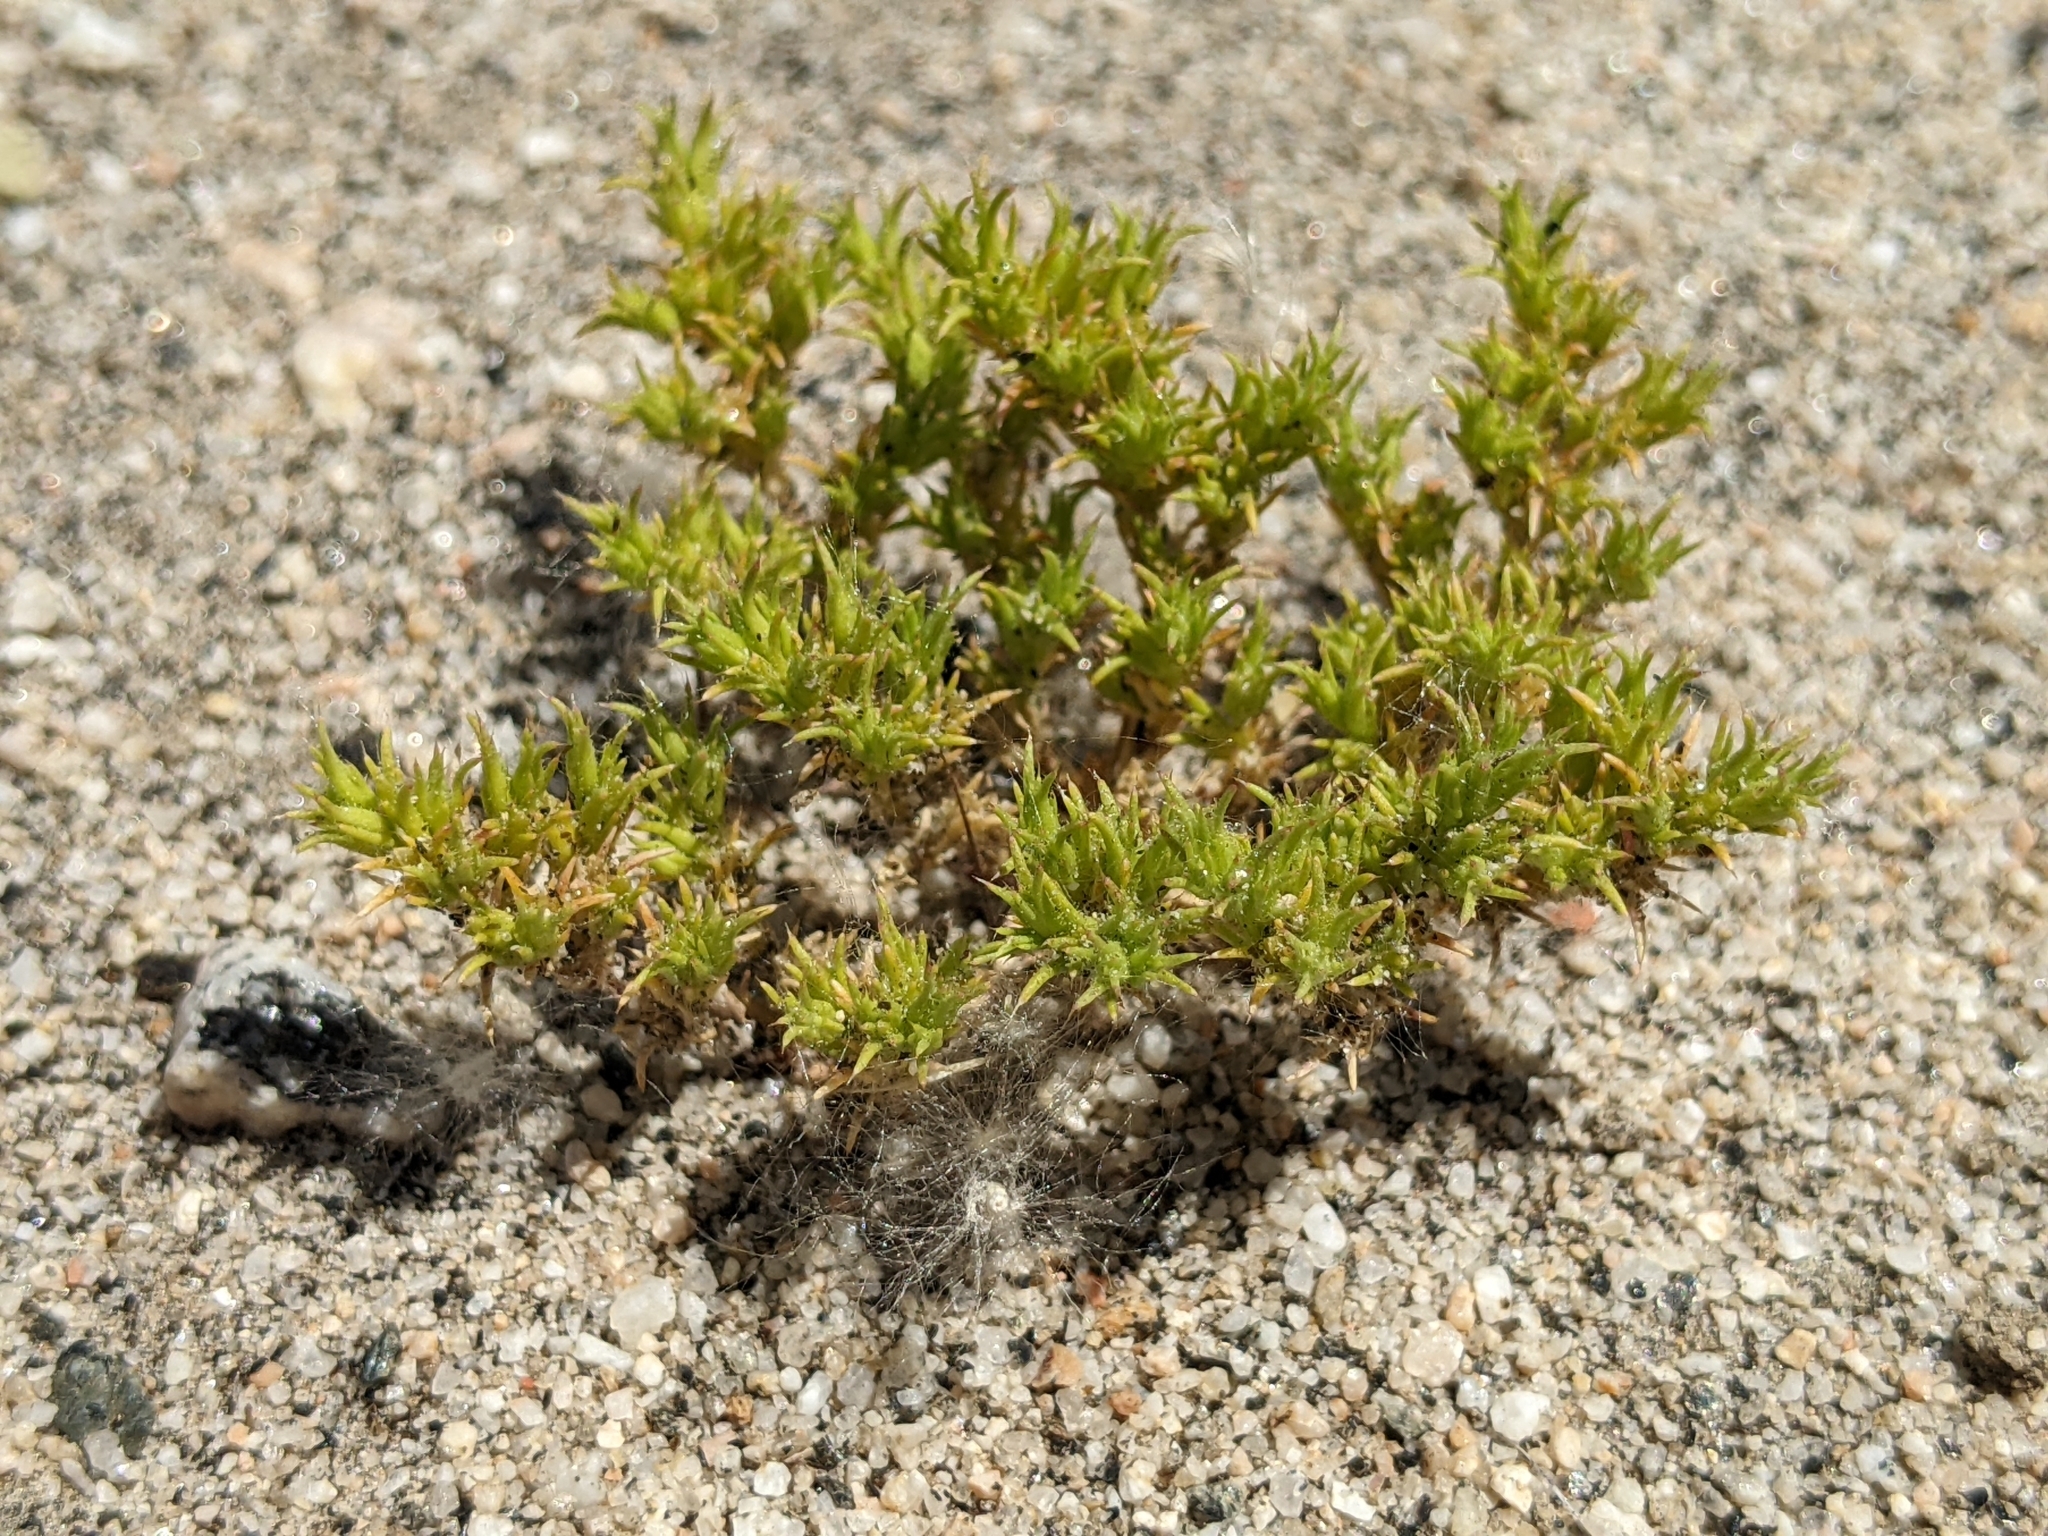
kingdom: Plantae
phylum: Tracheophyta
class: Magnoliopsida
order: Caryophyllales
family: Caryophyllaceae
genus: Loeflingia
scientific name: Loeflingia squarrosa
